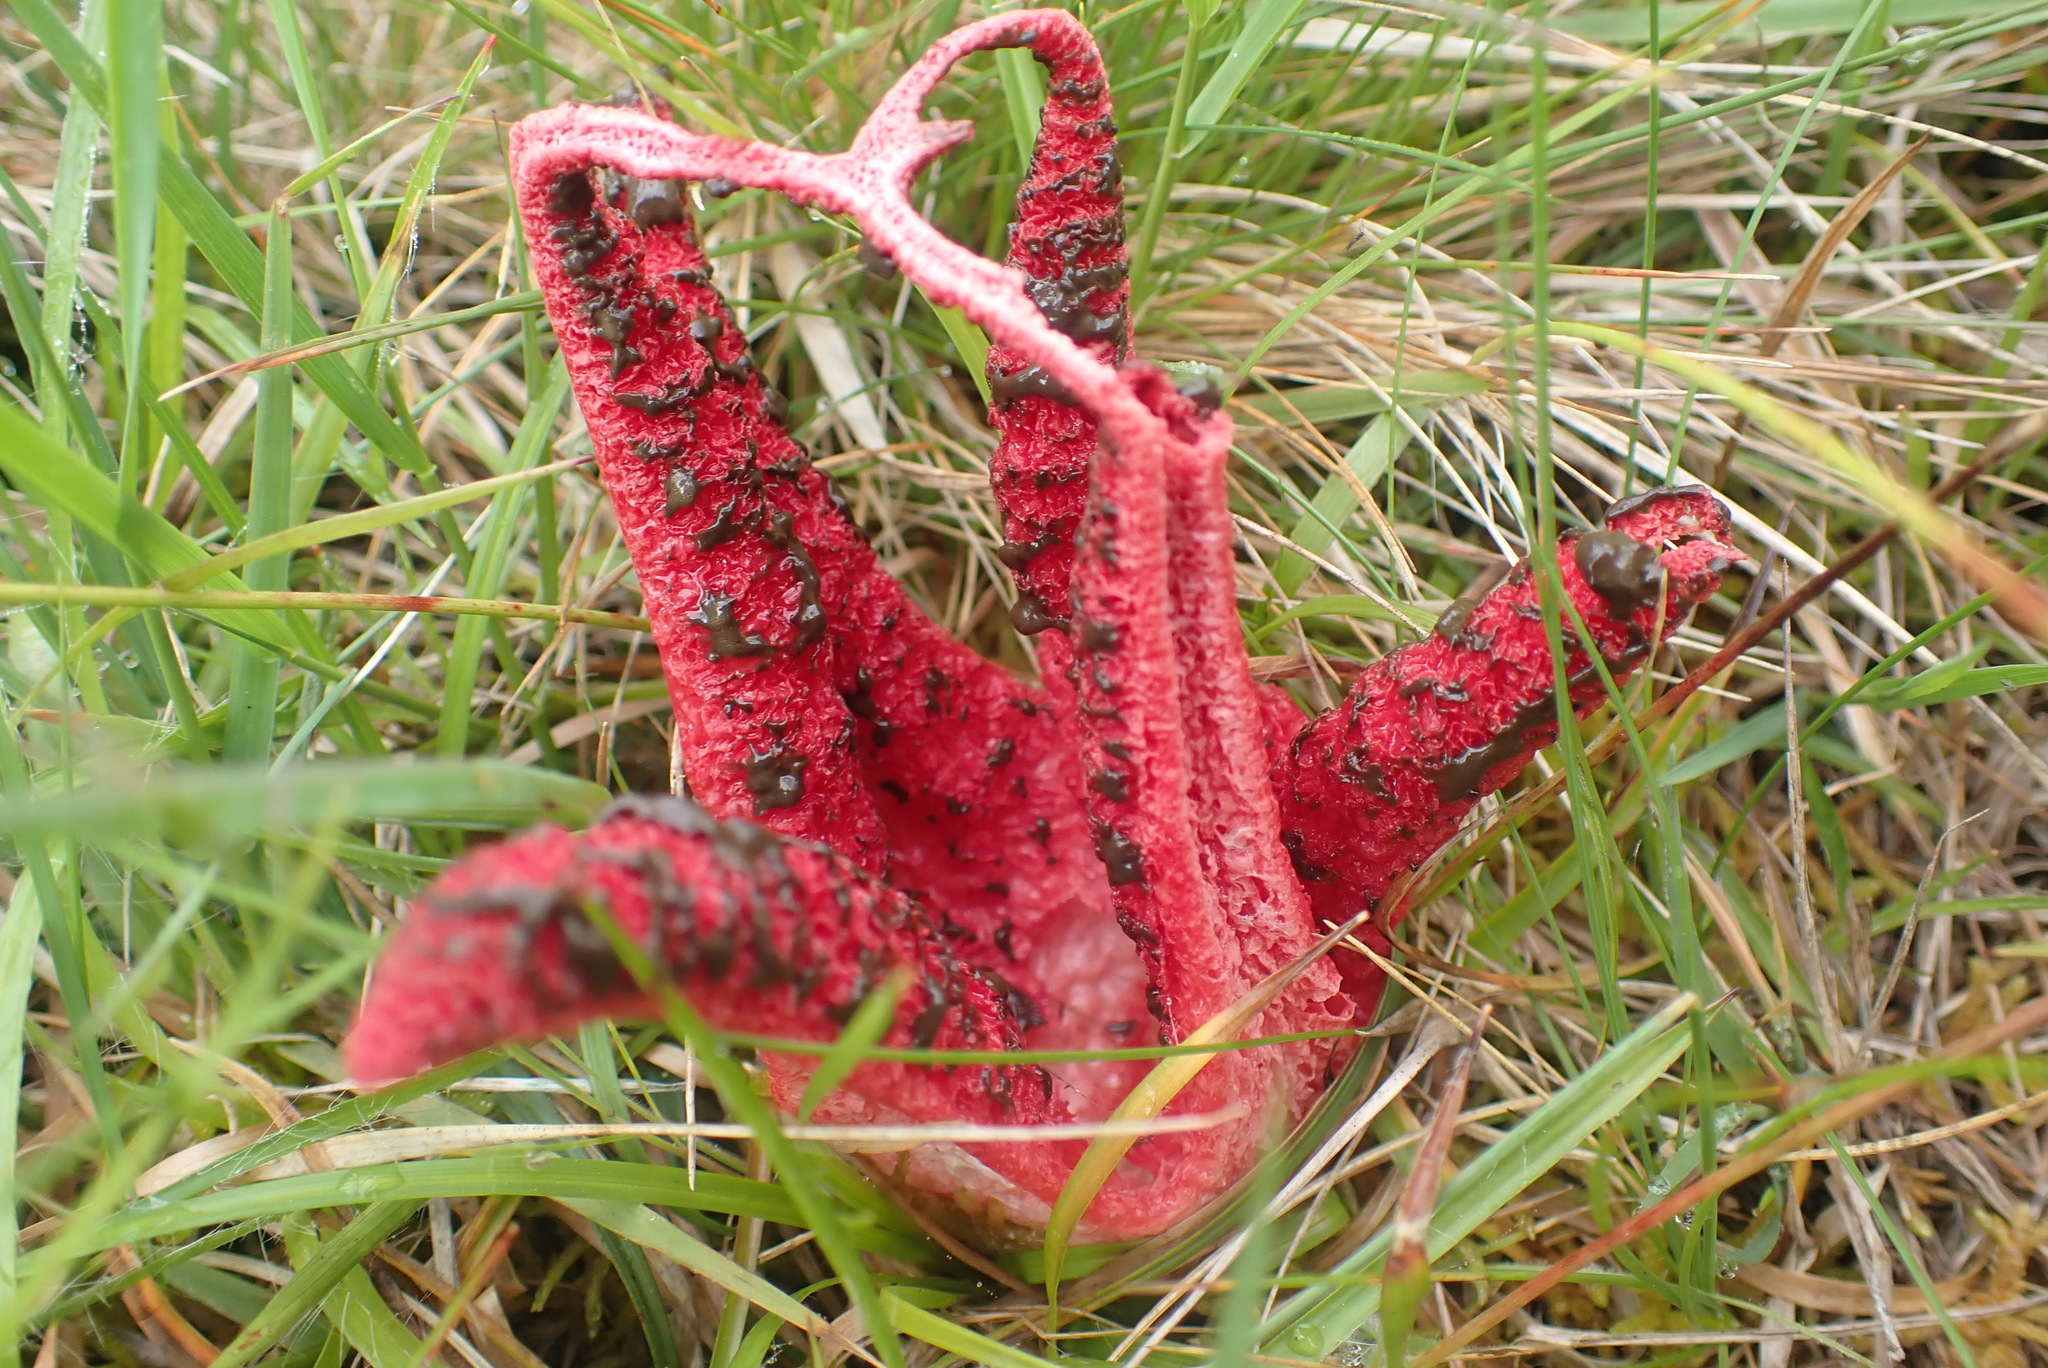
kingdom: Fungi
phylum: Basidiomycota
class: Agaricomycetes
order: Phallales
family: Phallaceae
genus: Clathrus
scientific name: Clathrus archeri
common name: Devil's fingers
